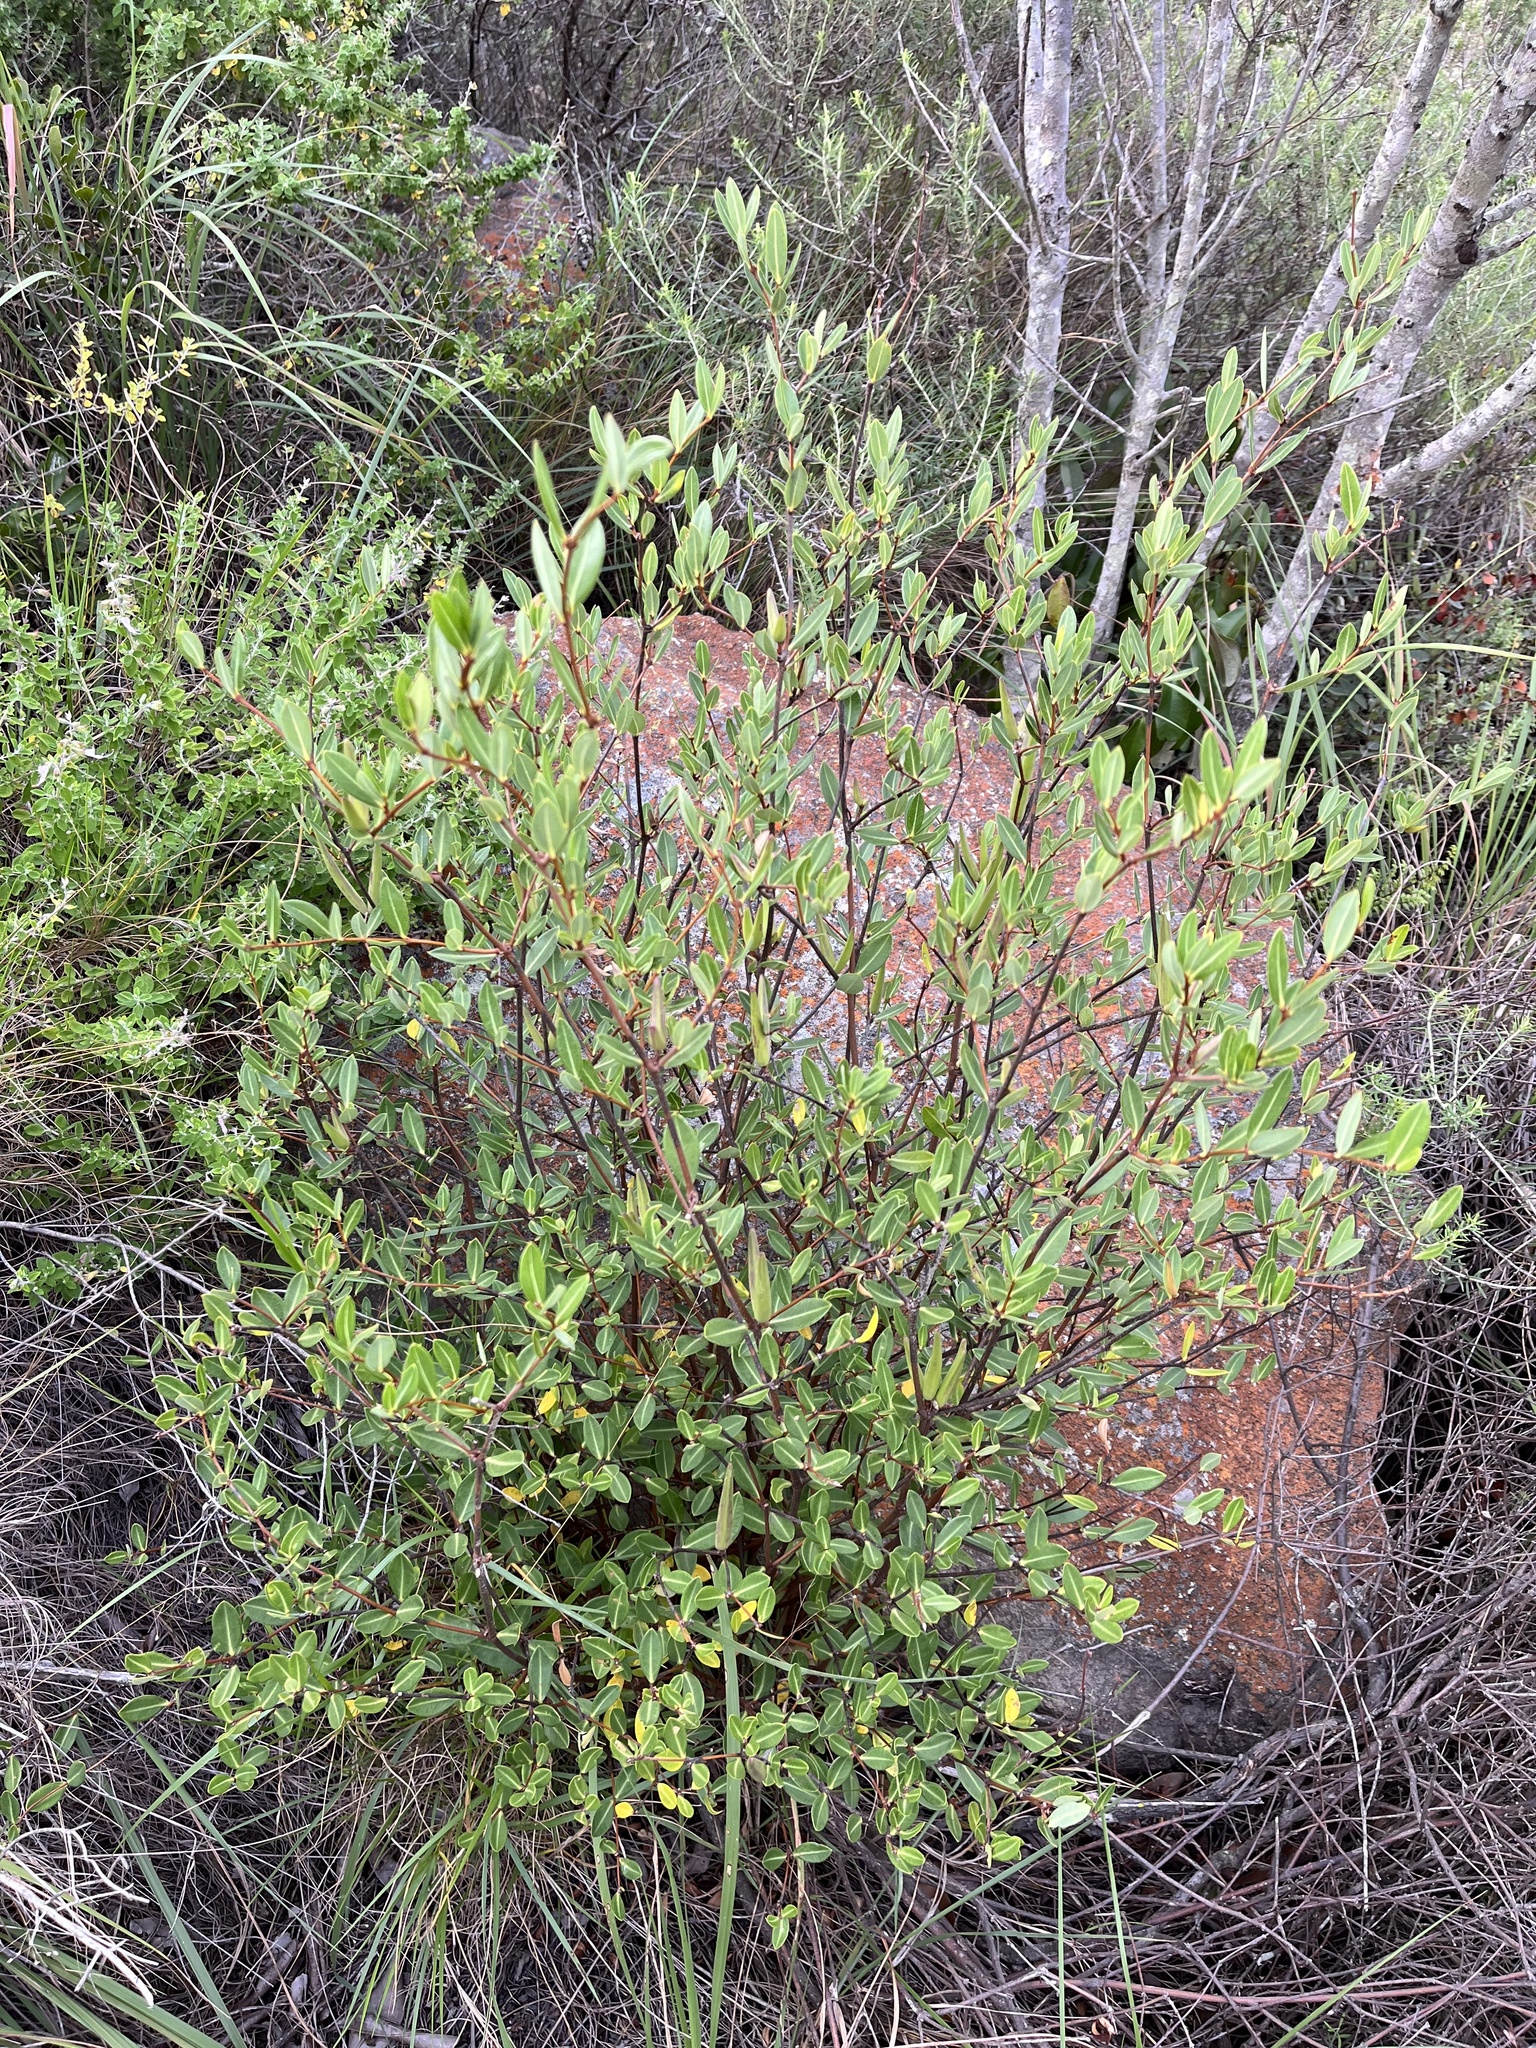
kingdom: Plantae
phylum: Tracheophyta
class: Magnoliopsida
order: Gentianales
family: Apocynaceae
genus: Cryptolepis
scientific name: Cryptolepis oblongifolia
